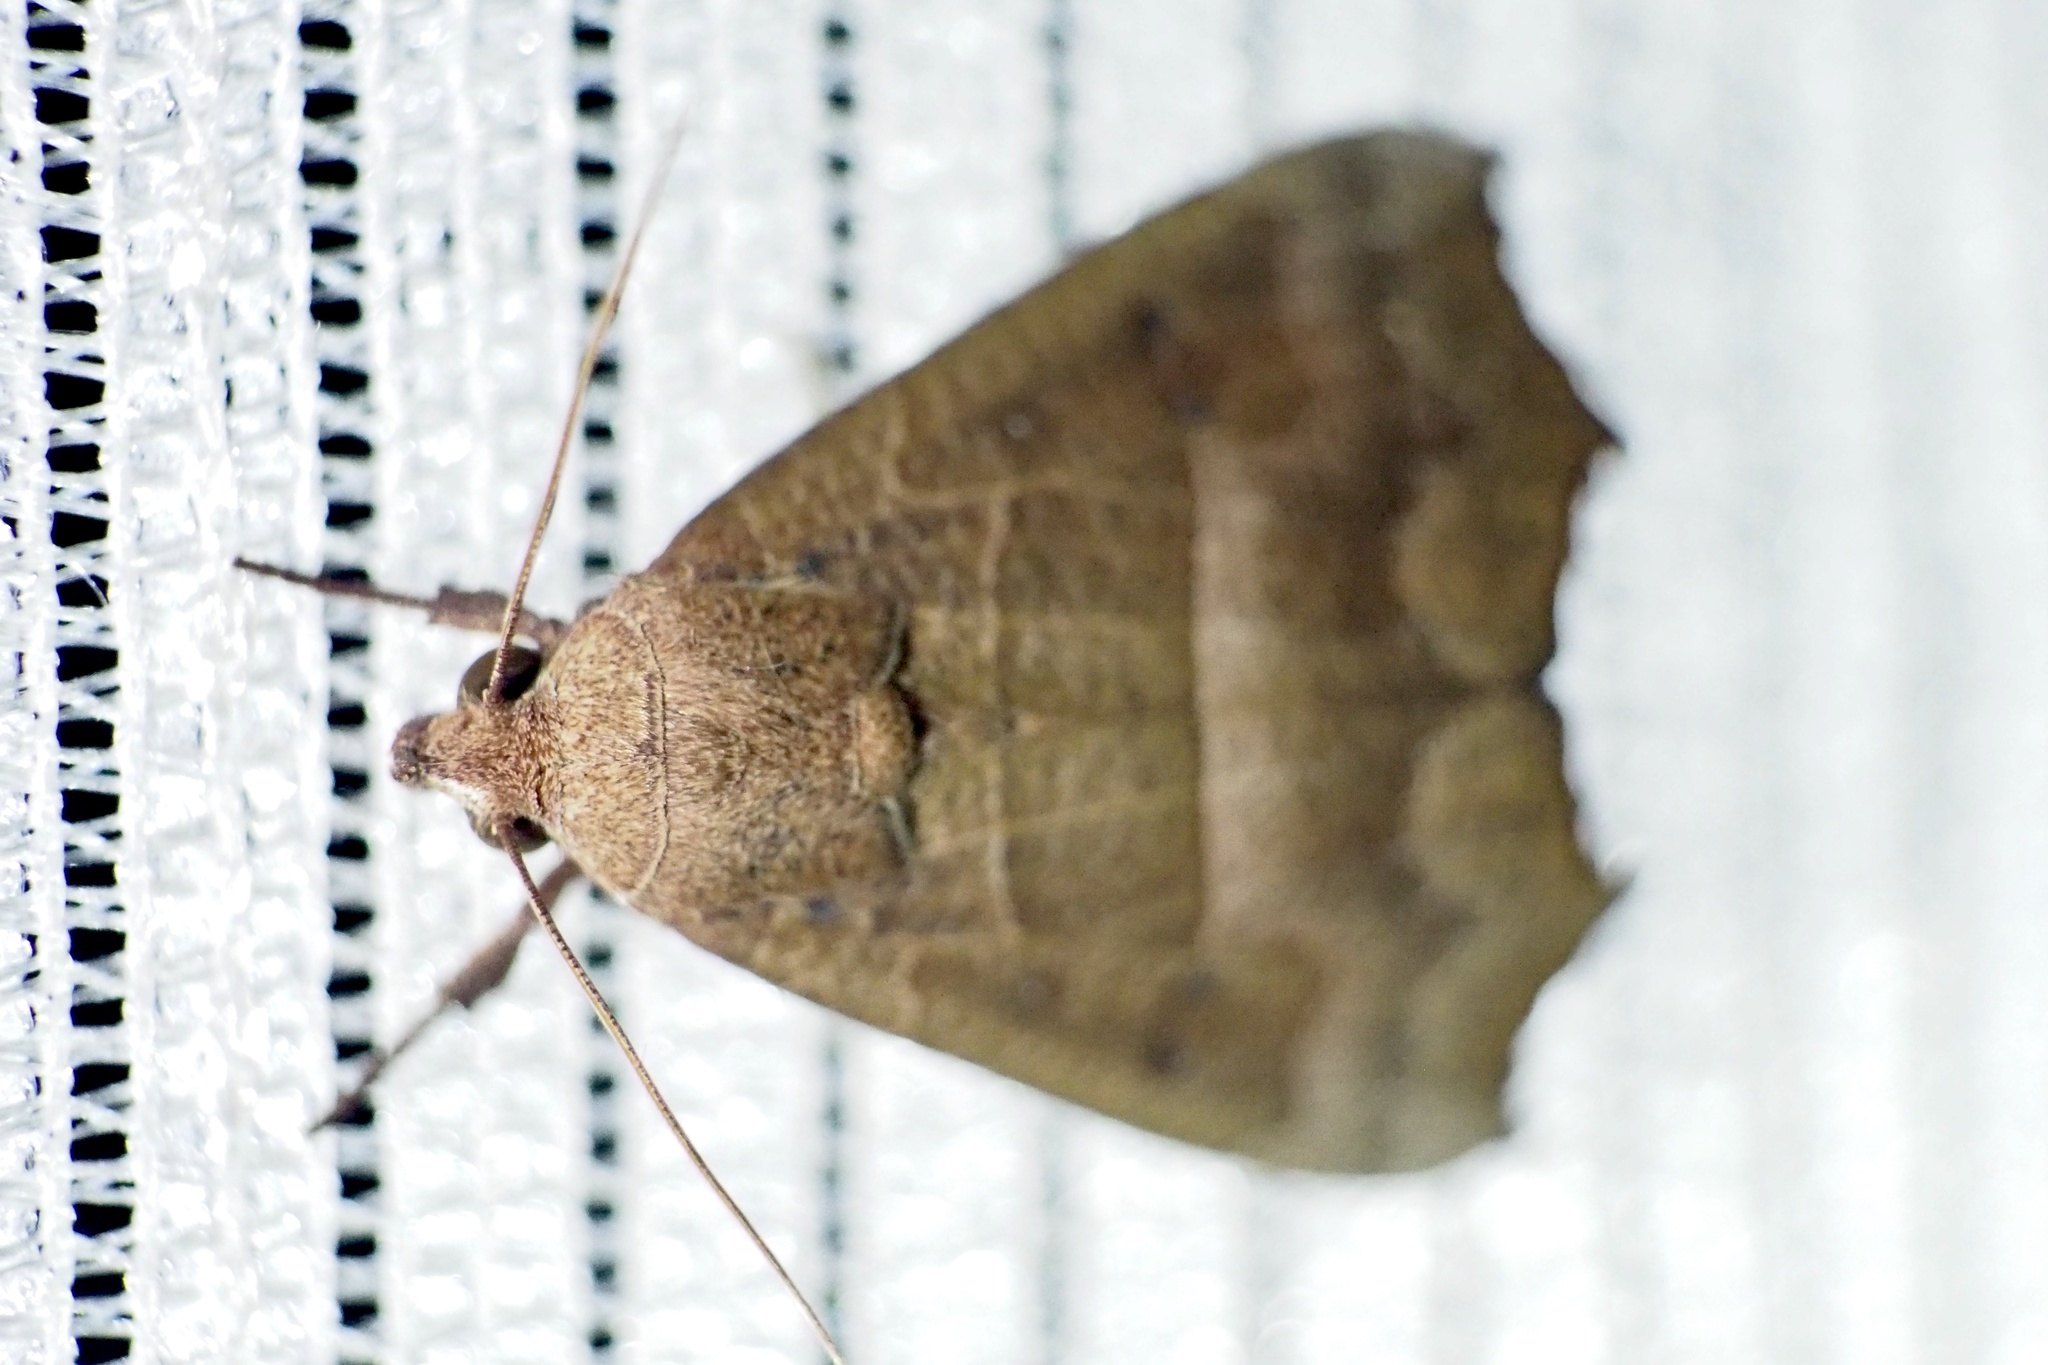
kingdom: Animalia
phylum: Arthropoda
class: Insecta
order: Lepidoptera
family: Erebidae
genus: Gonitis
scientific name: Gonitis mesogona
